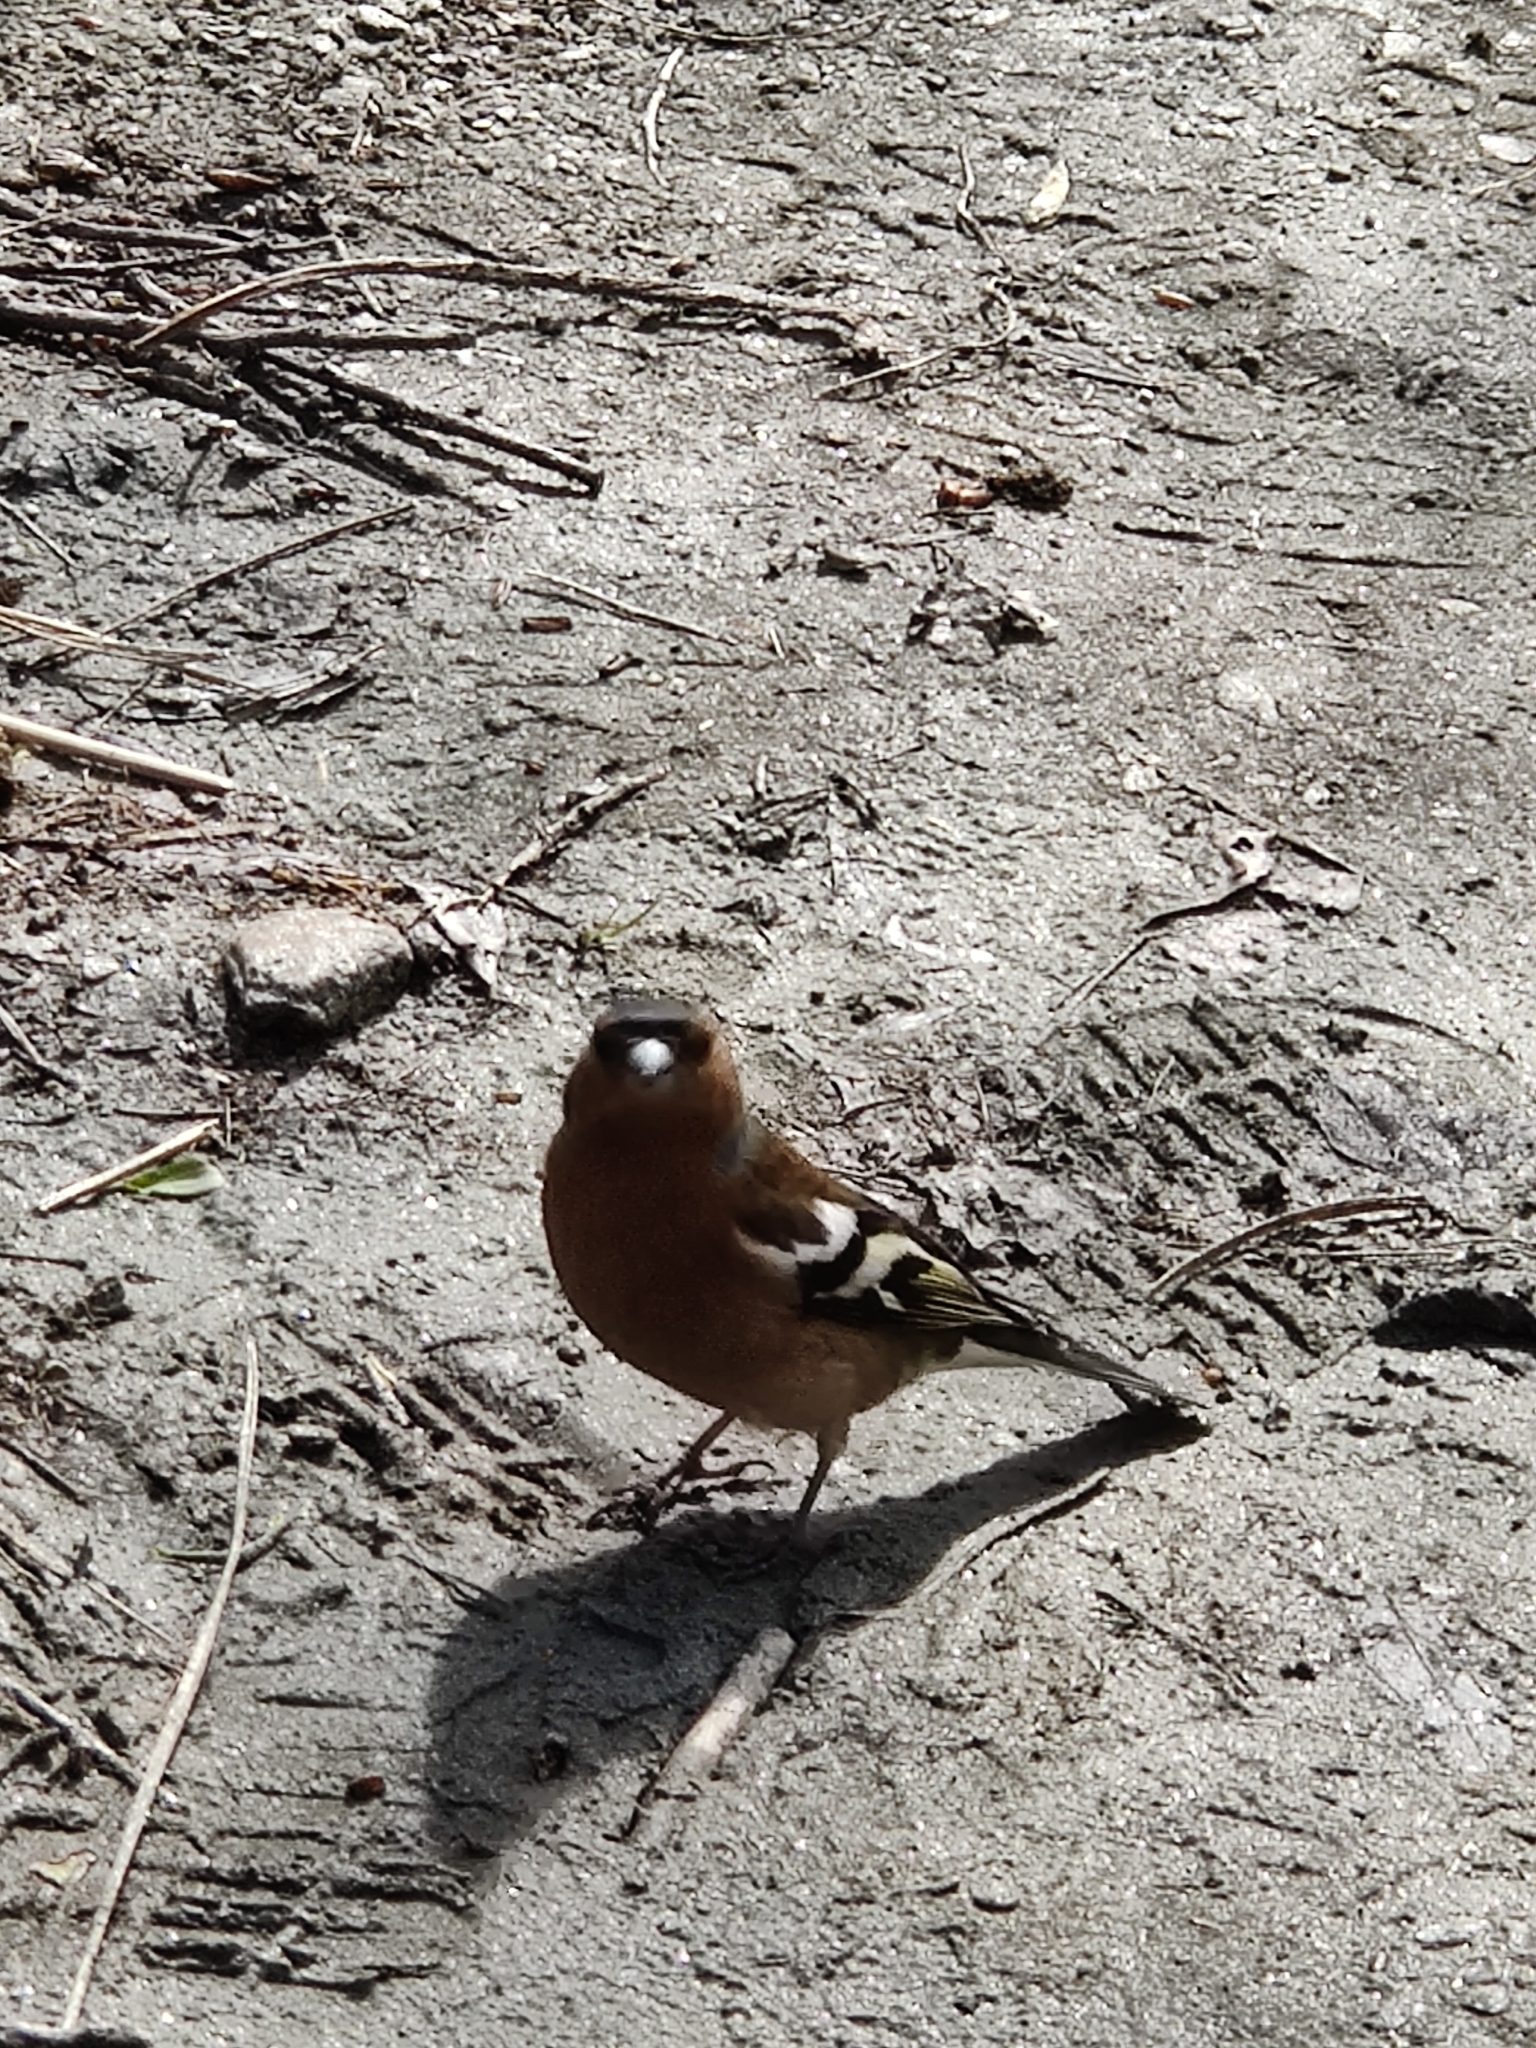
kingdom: Animalia
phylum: Chordata
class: Aves
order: Passeriformes
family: Fringillidae
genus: Fringilla
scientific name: Fringilla coelebs
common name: Common chaffinch
